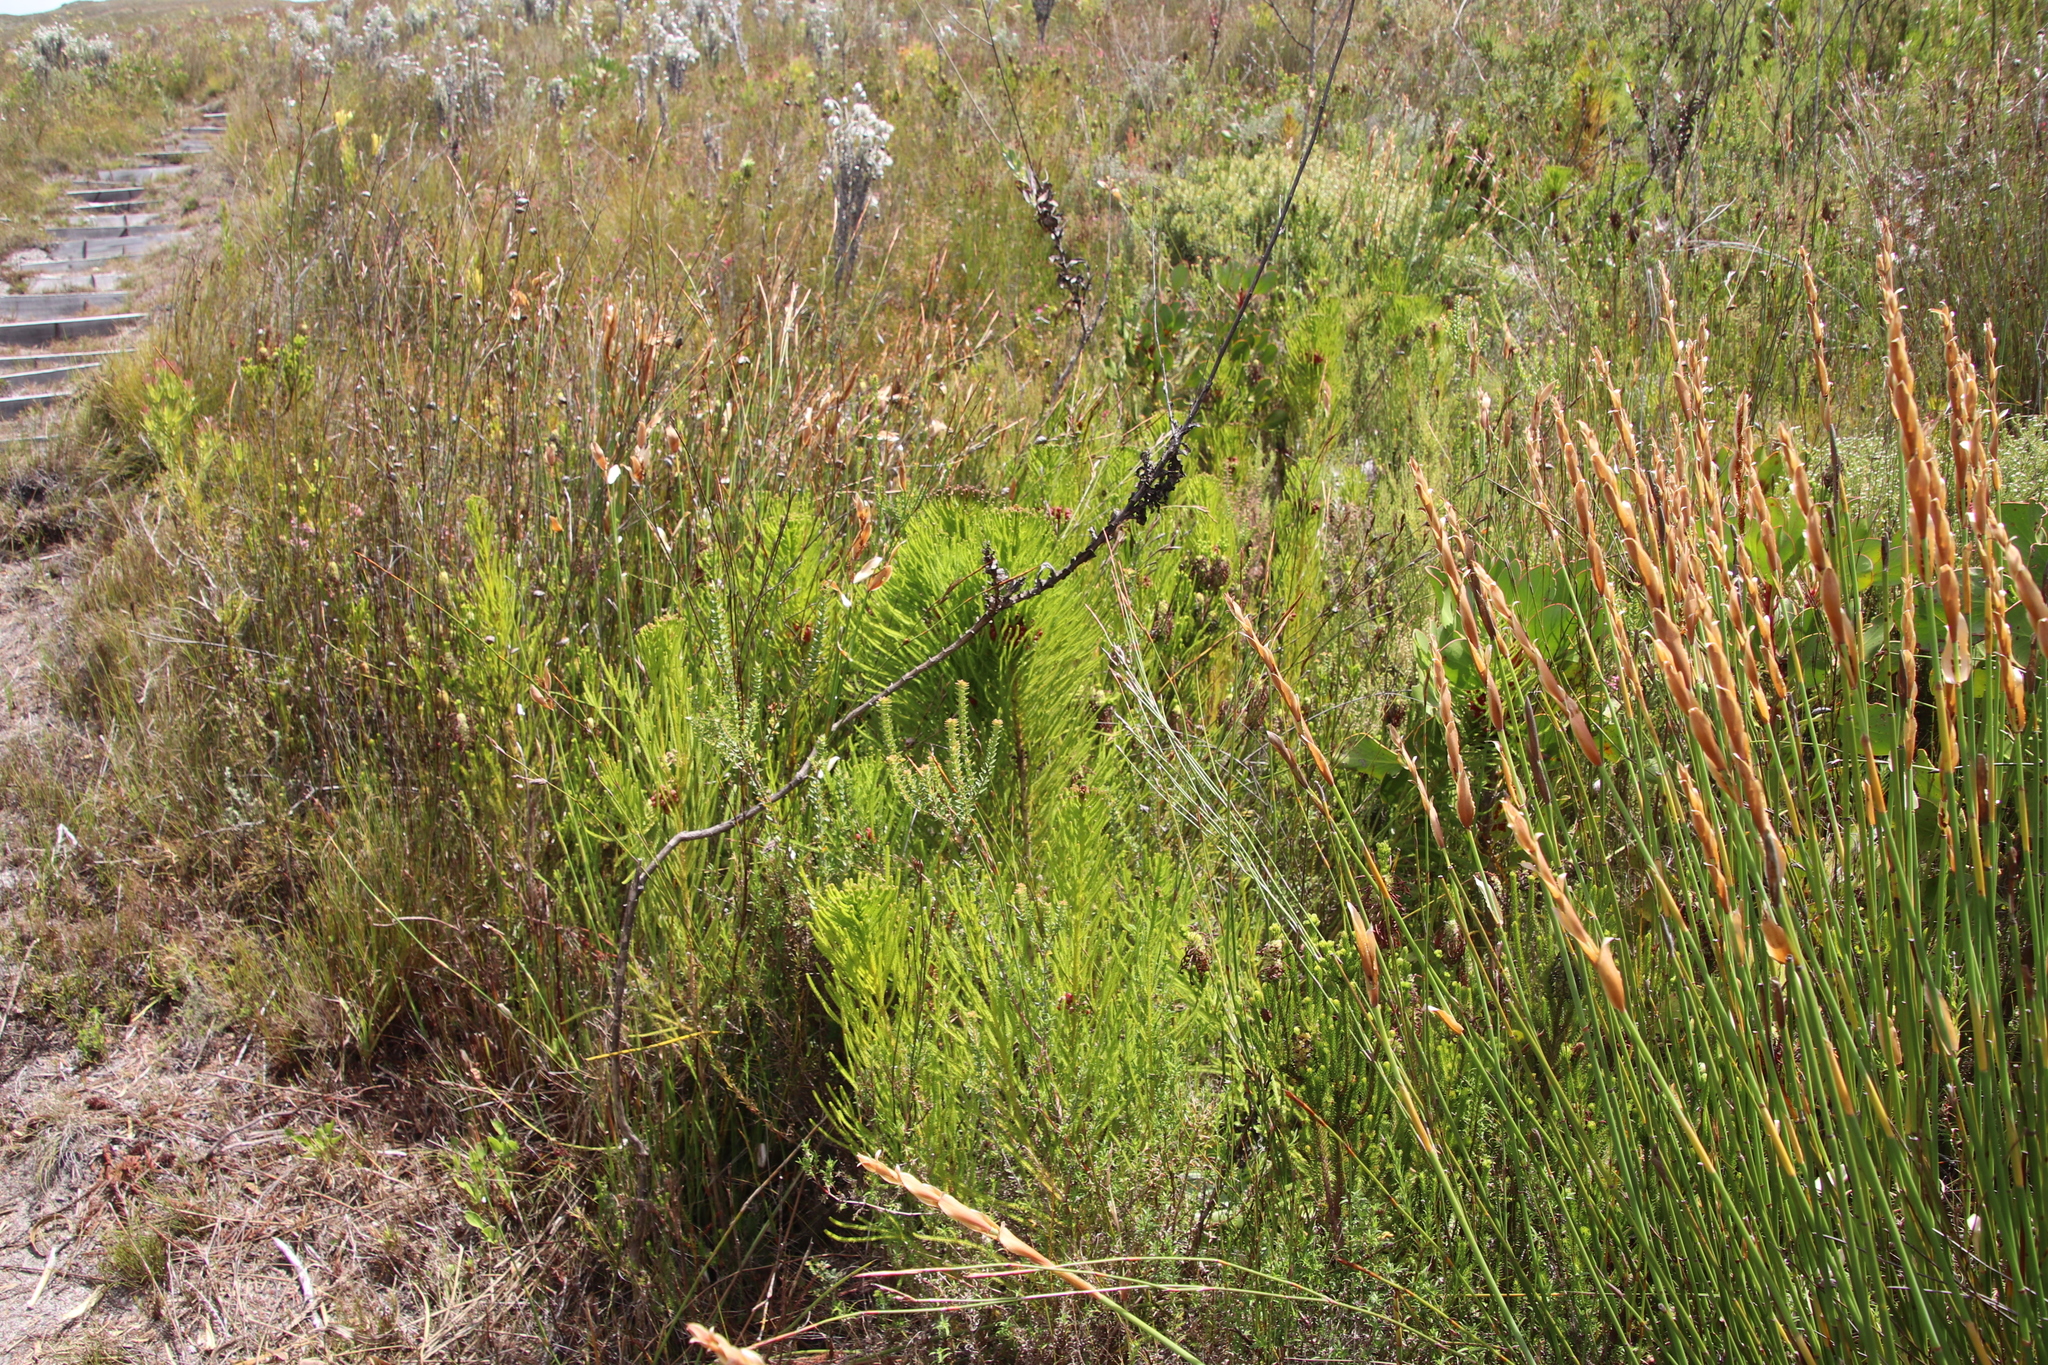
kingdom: Plantae
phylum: Tracheophyta
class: Magnoliopsida
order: Bruniales
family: Bruniaceae
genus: Berzelia
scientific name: Berzelia alopecurioides
